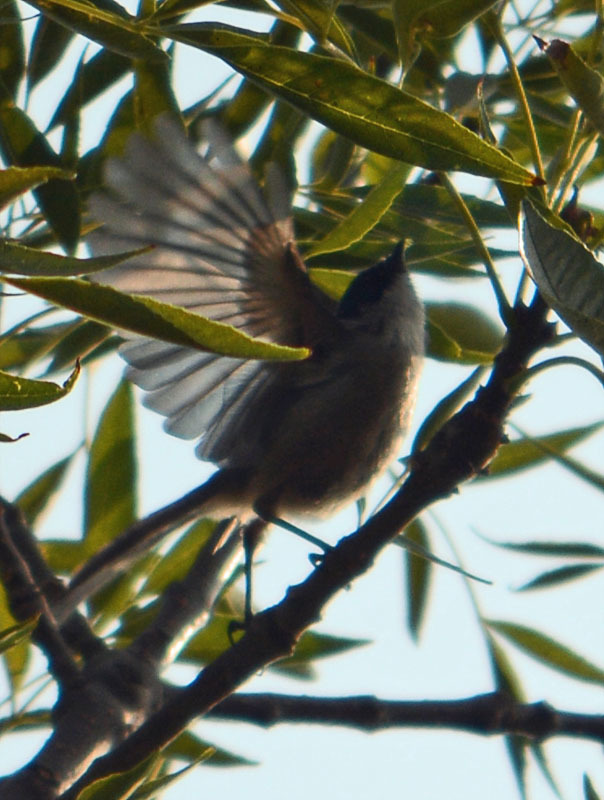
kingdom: Animalia
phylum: Chordata
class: Aves
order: Passeriformes
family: Aegithalidae
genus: Psaltriparus
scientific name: Psaltriparus minimus
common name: American bushtit
